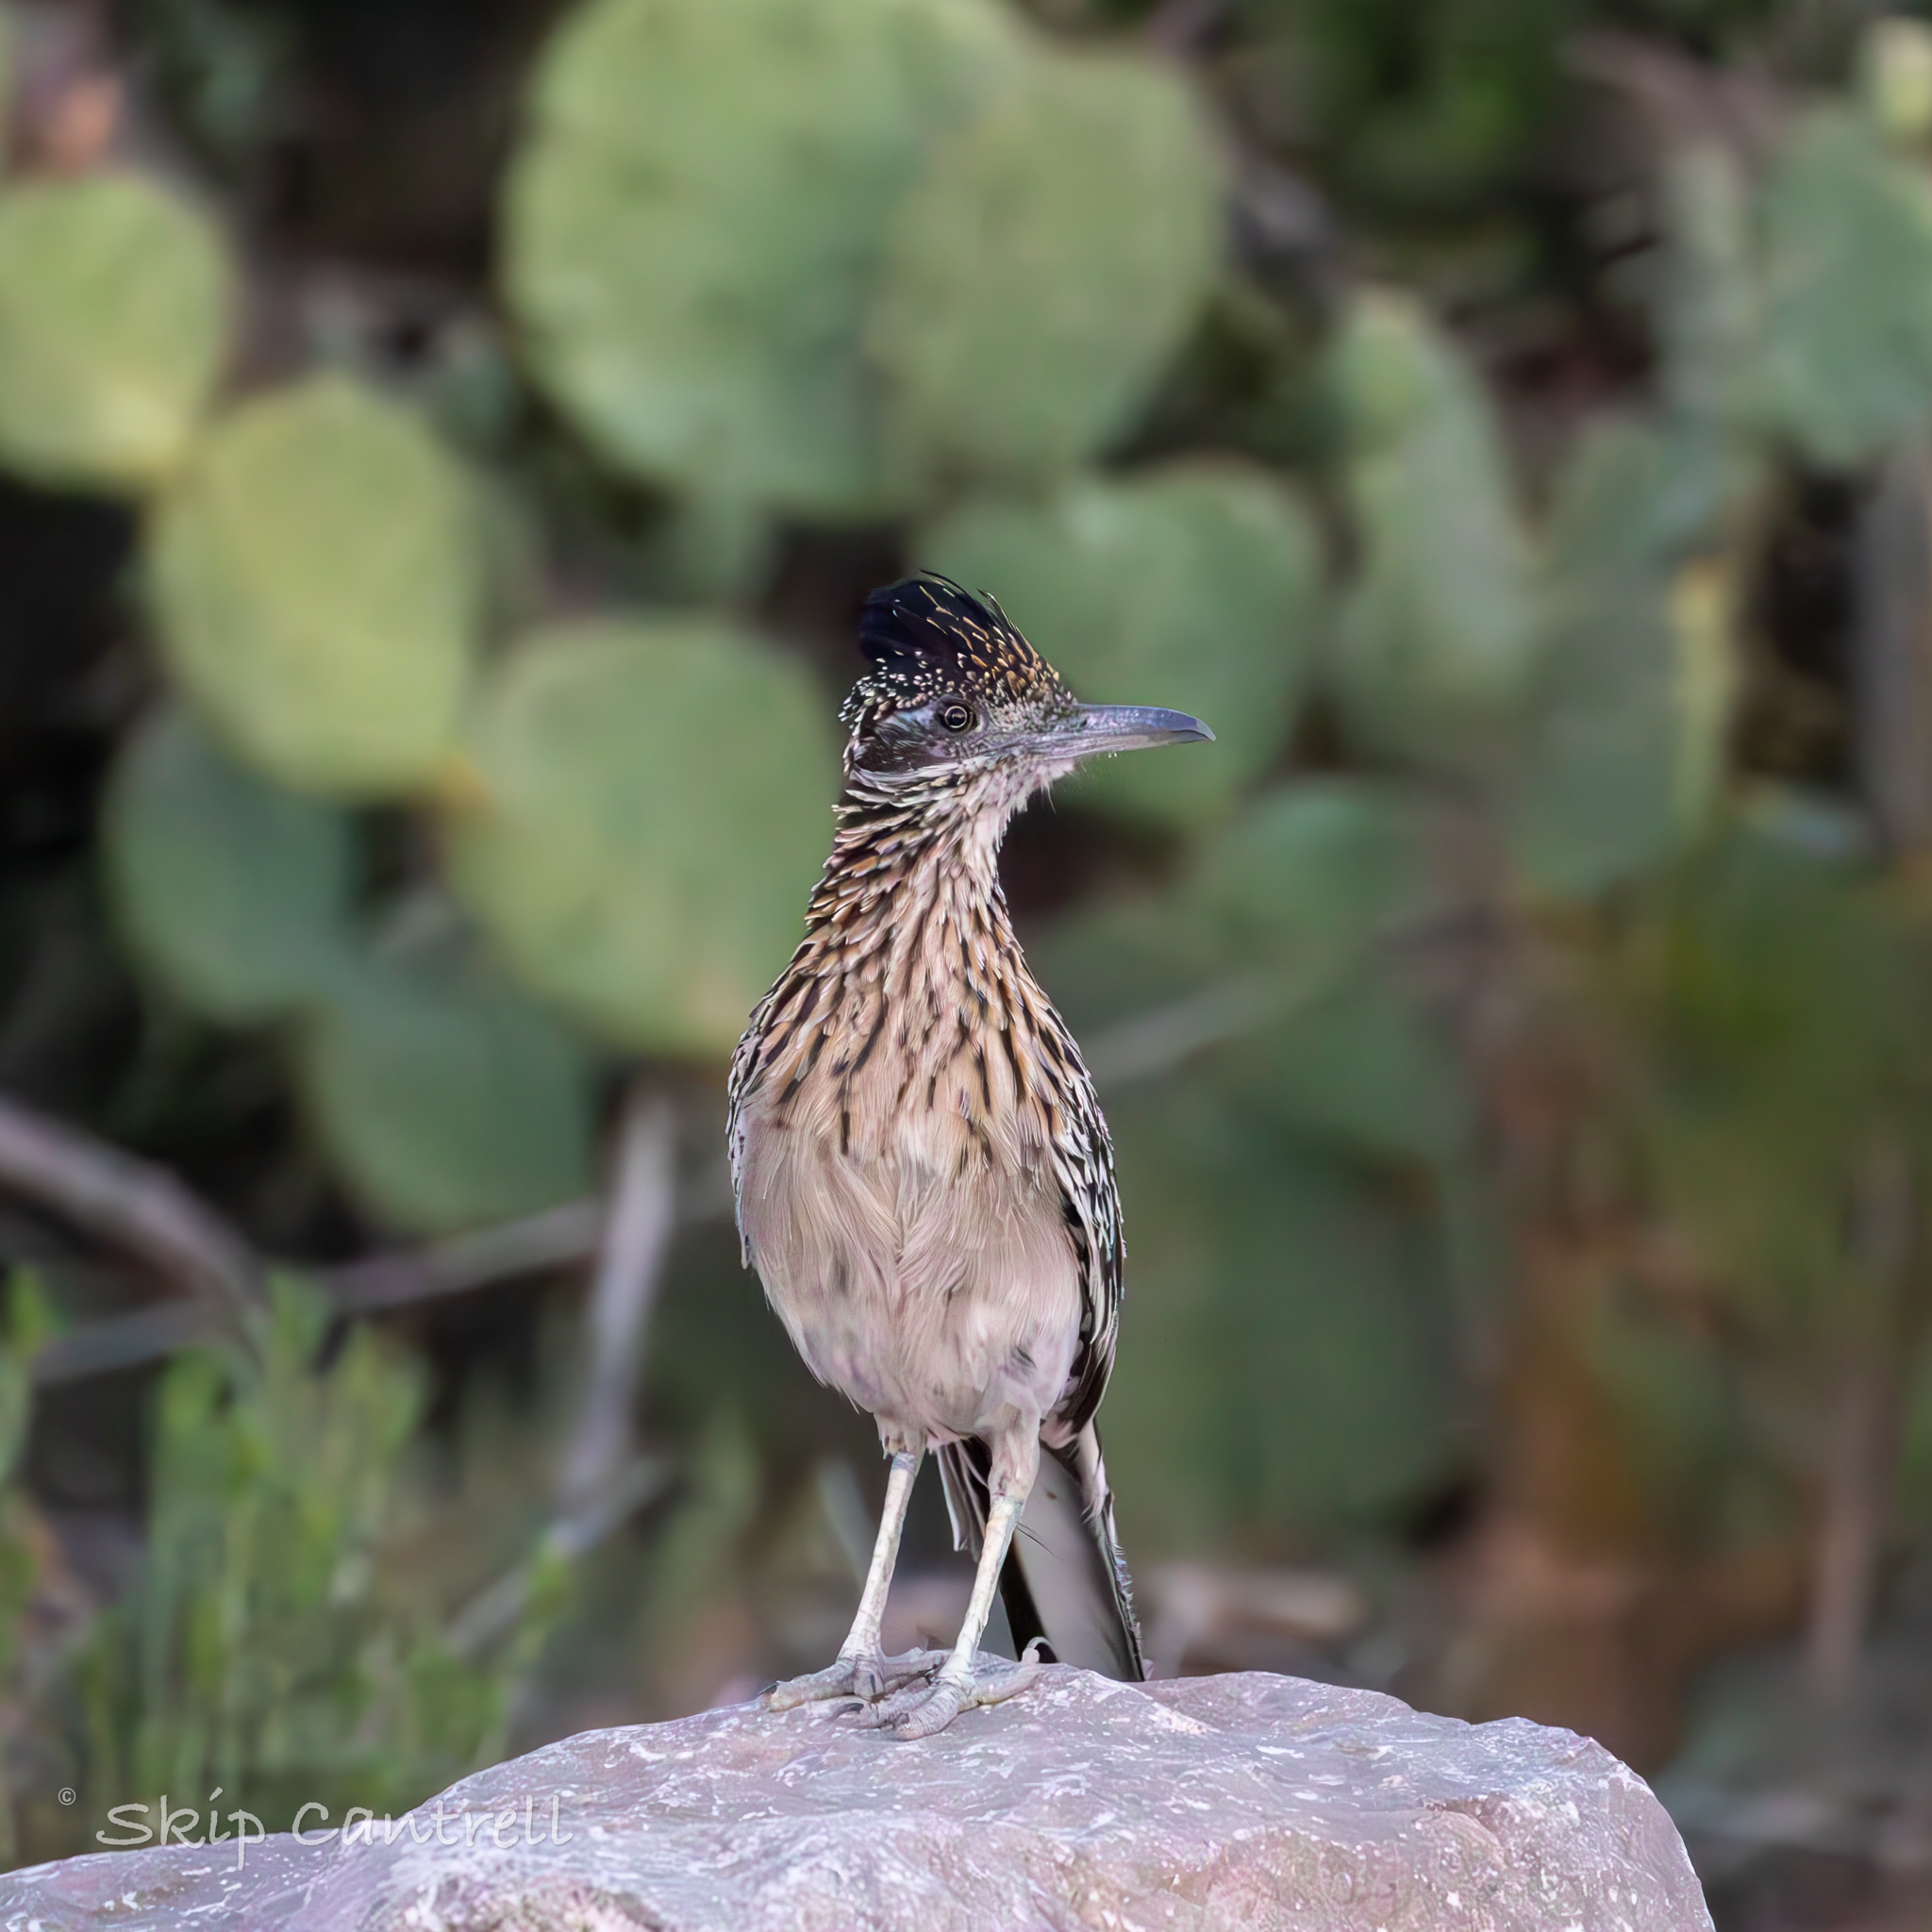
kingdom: Animalia
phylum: Chordata
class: Aves
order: Cuculiformes
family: Cuculidae
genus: Geococcyx
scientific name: Geococcyx californianus
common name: Greater roadrunner
